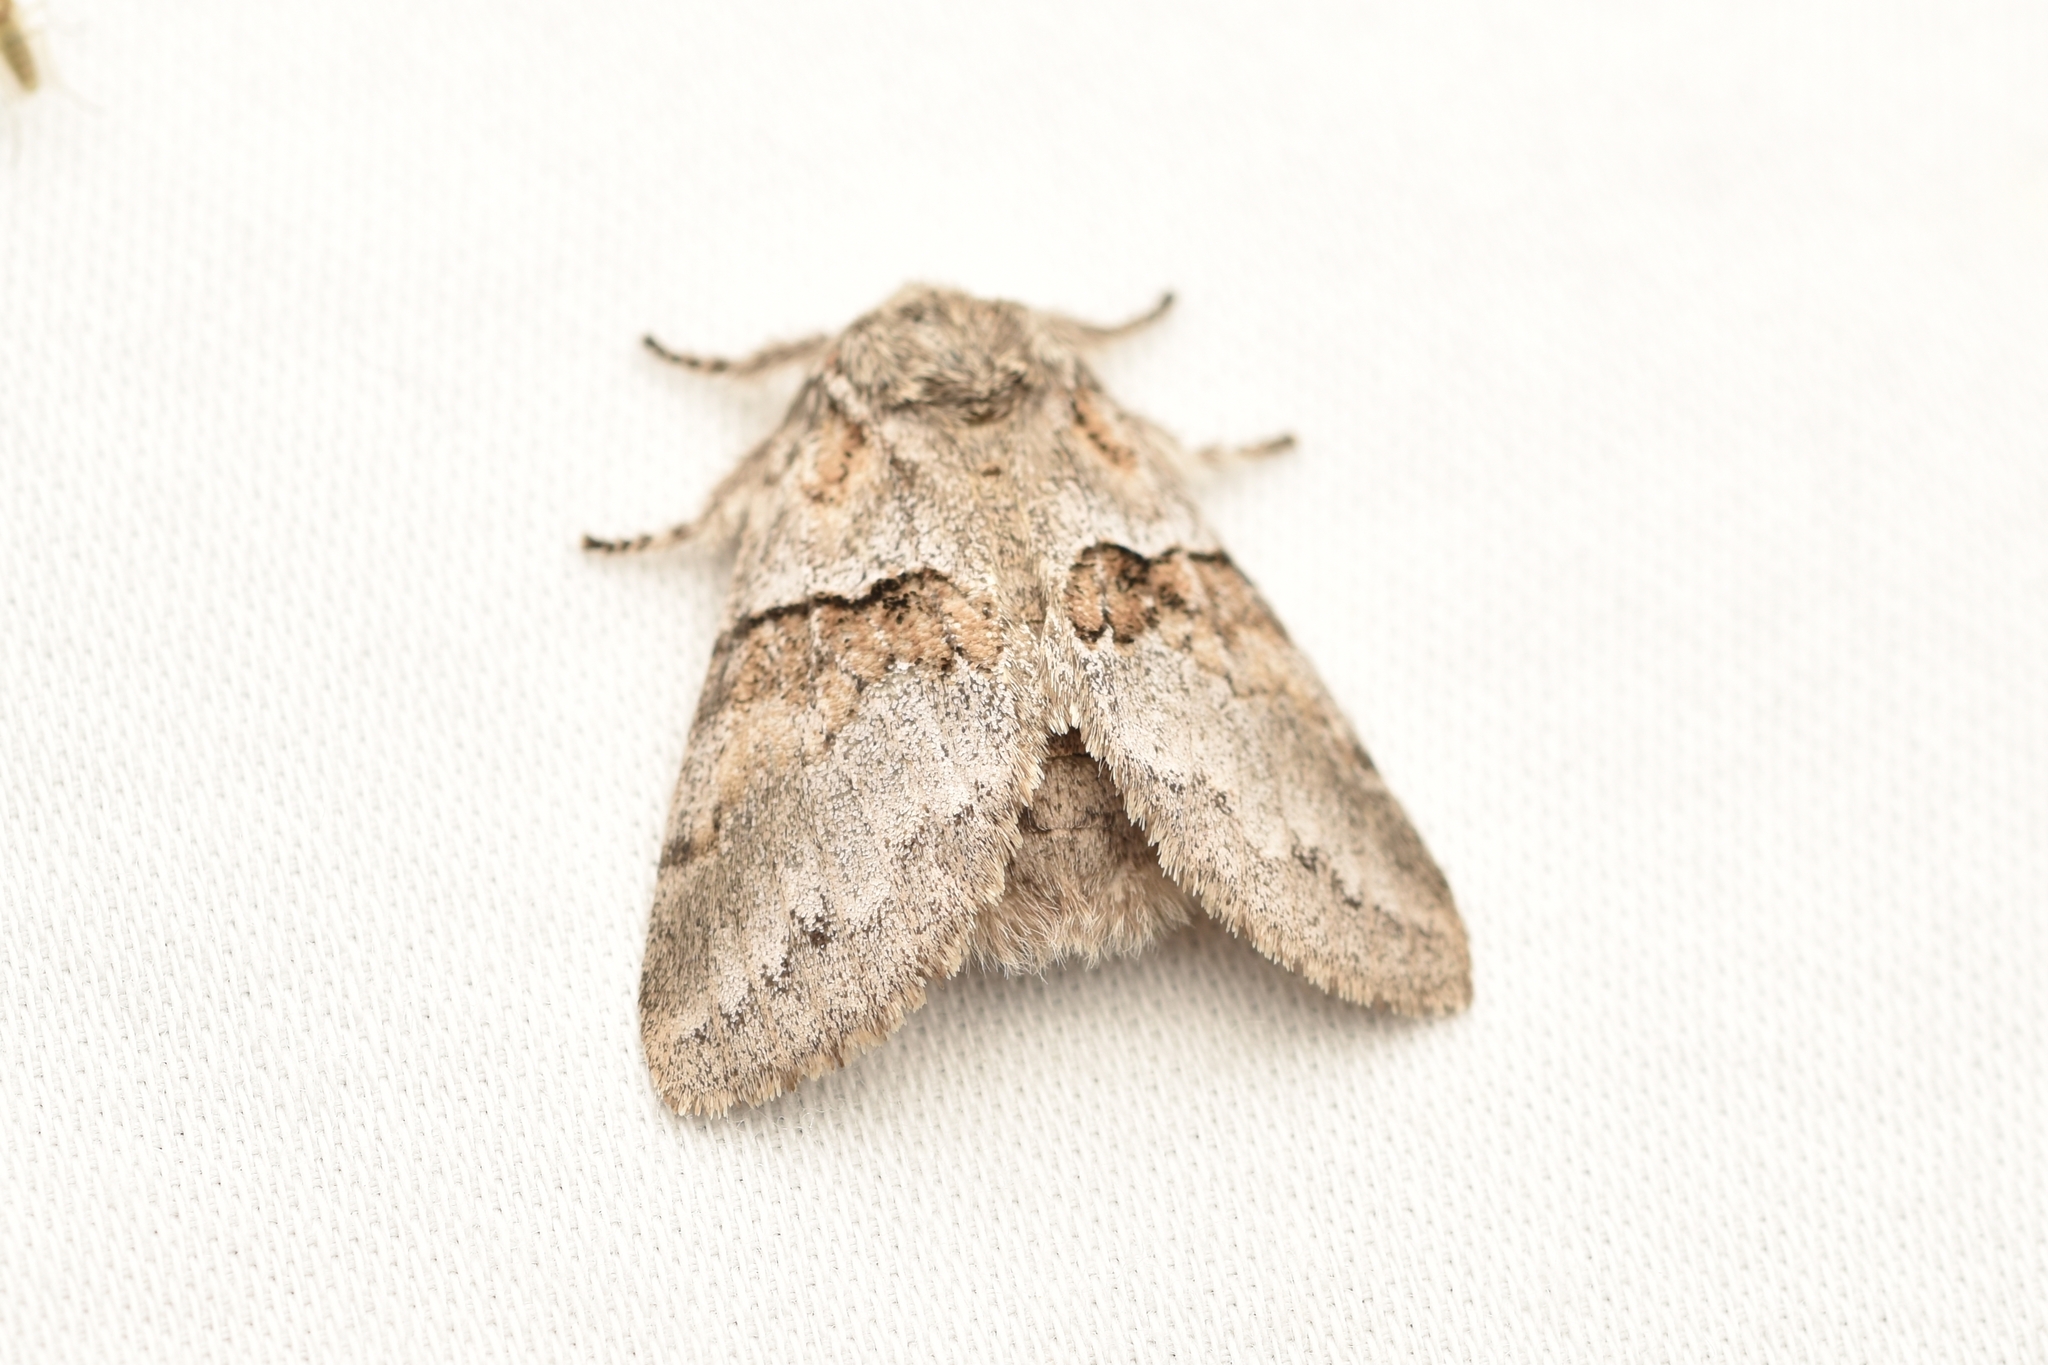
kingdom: Animalia
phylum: Arthropoda
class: Insecta
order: Lepidoptera
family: Notodontidae
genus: Gluphisia
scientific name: Gluphisia septentrionis
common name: Common gluphisia
